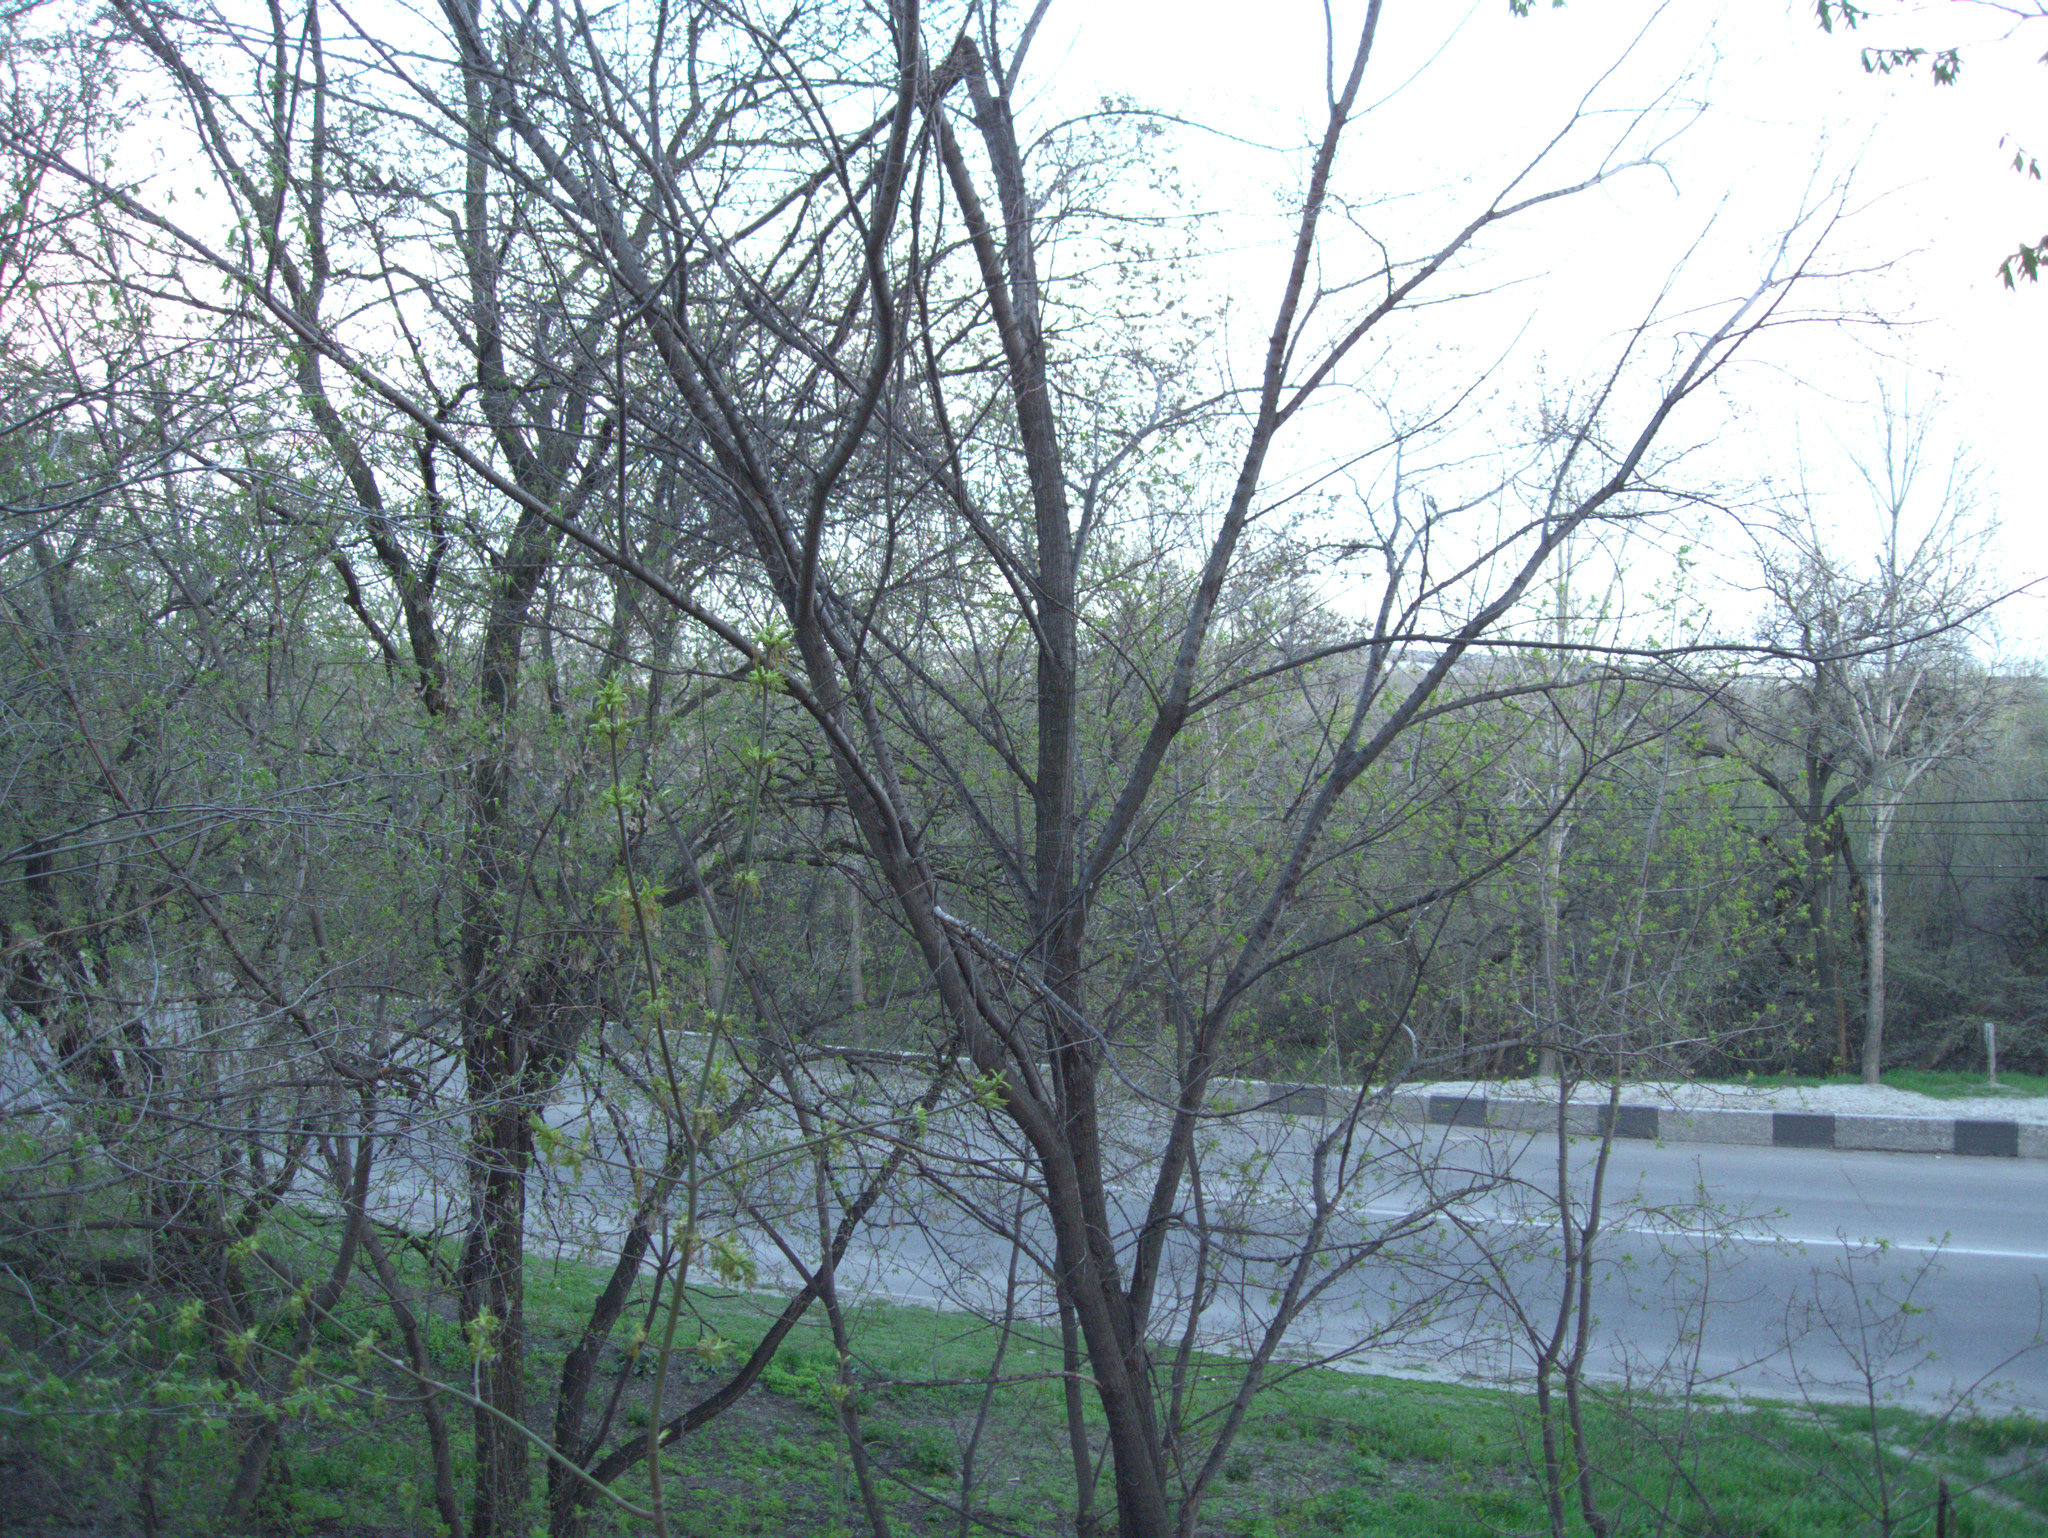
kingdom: Plantae
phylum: Tracheophyta
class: Magnoliopsida
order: Sapindales
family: Sapindaceae
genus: Acer
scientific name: Acer negundo
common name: Ashleaf maple
